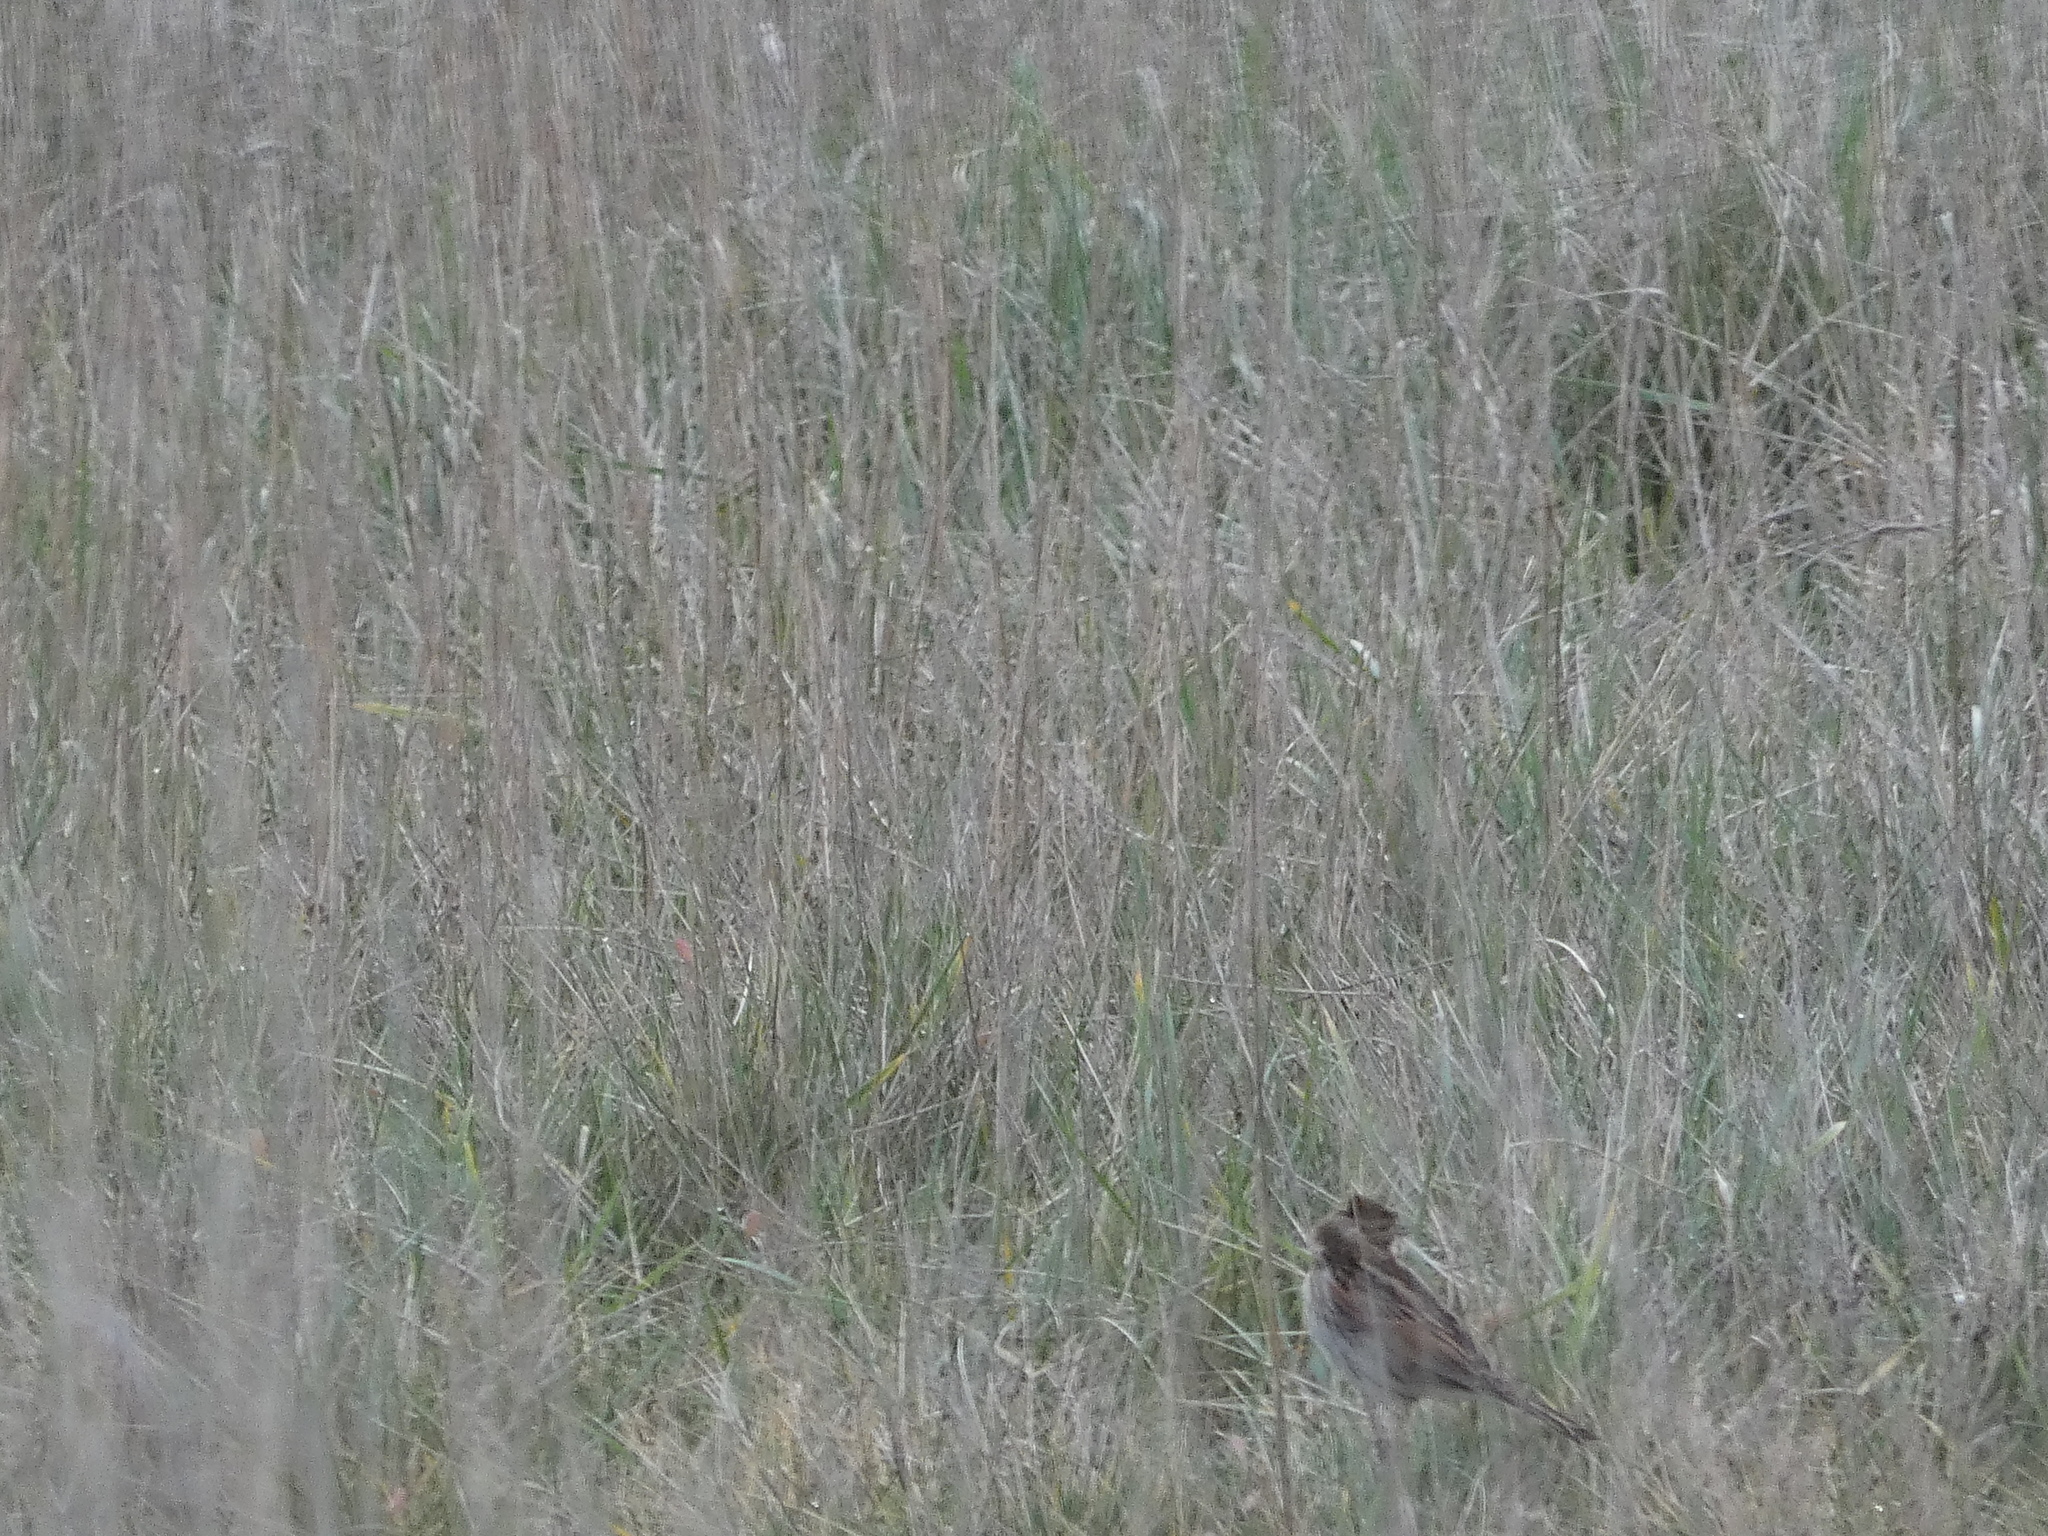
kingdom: Animalia
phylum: Chordata
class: Aves
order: Passeriformes
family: Emberizidae
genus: Emberiza
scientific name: Emberiza schoeniclus
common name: Reed bunting
